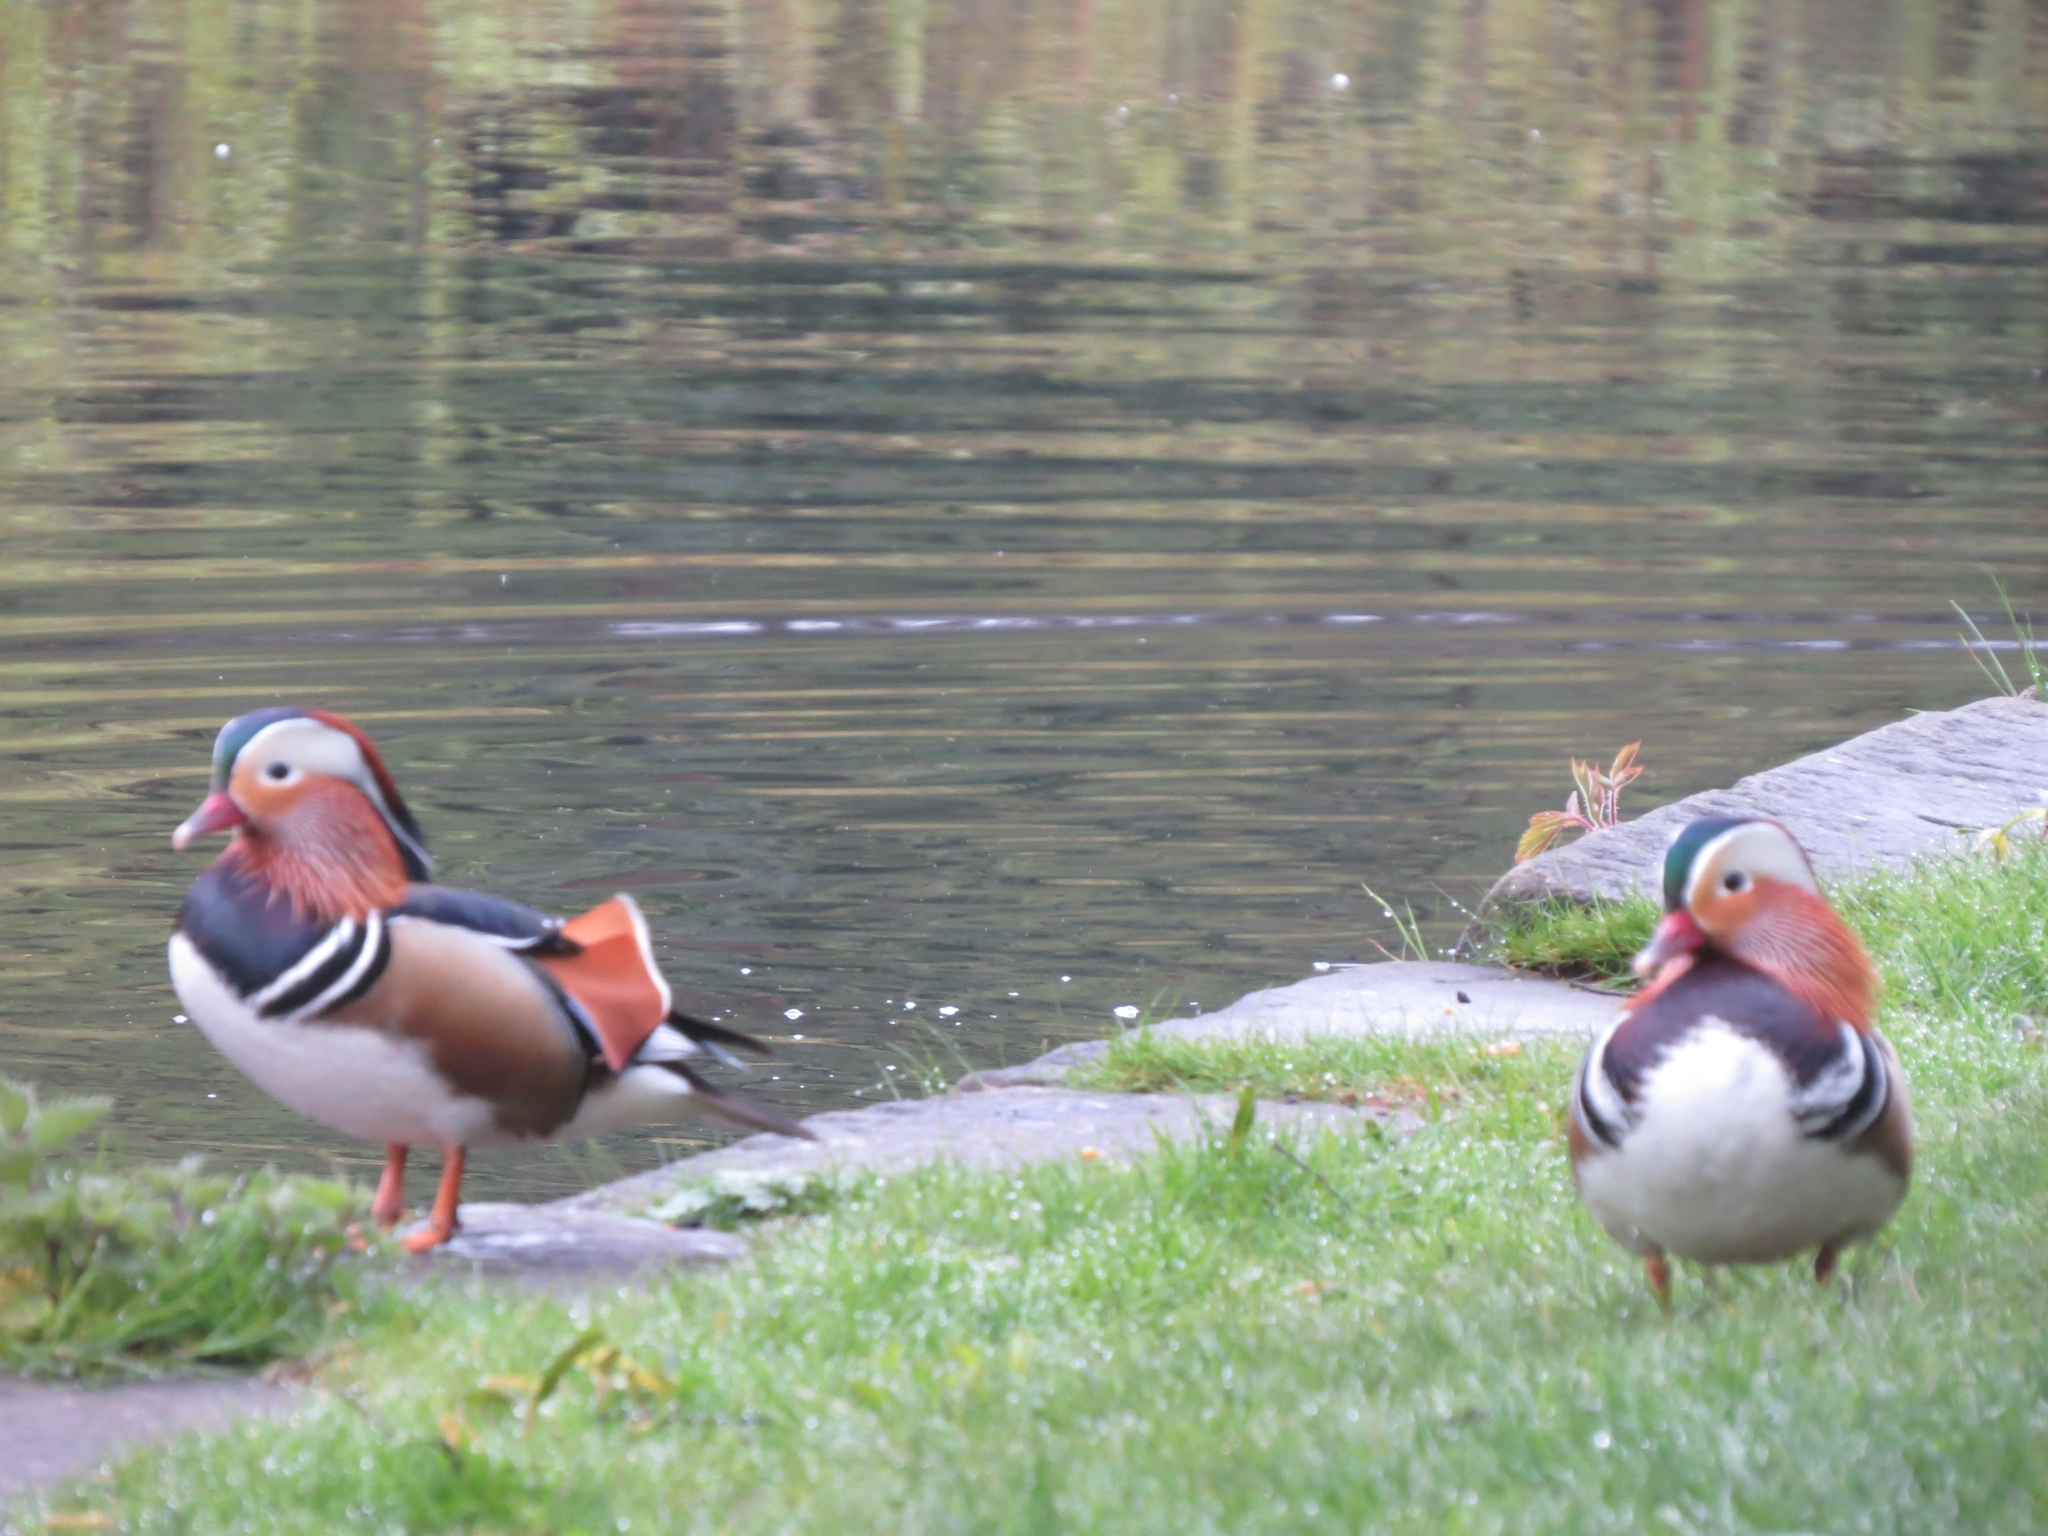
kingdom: Animalia
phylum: Chordata
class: Aves
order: Anseriformes
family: Anatidae
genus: Aix
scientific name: Aix galericulata
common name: Mandarin duck
